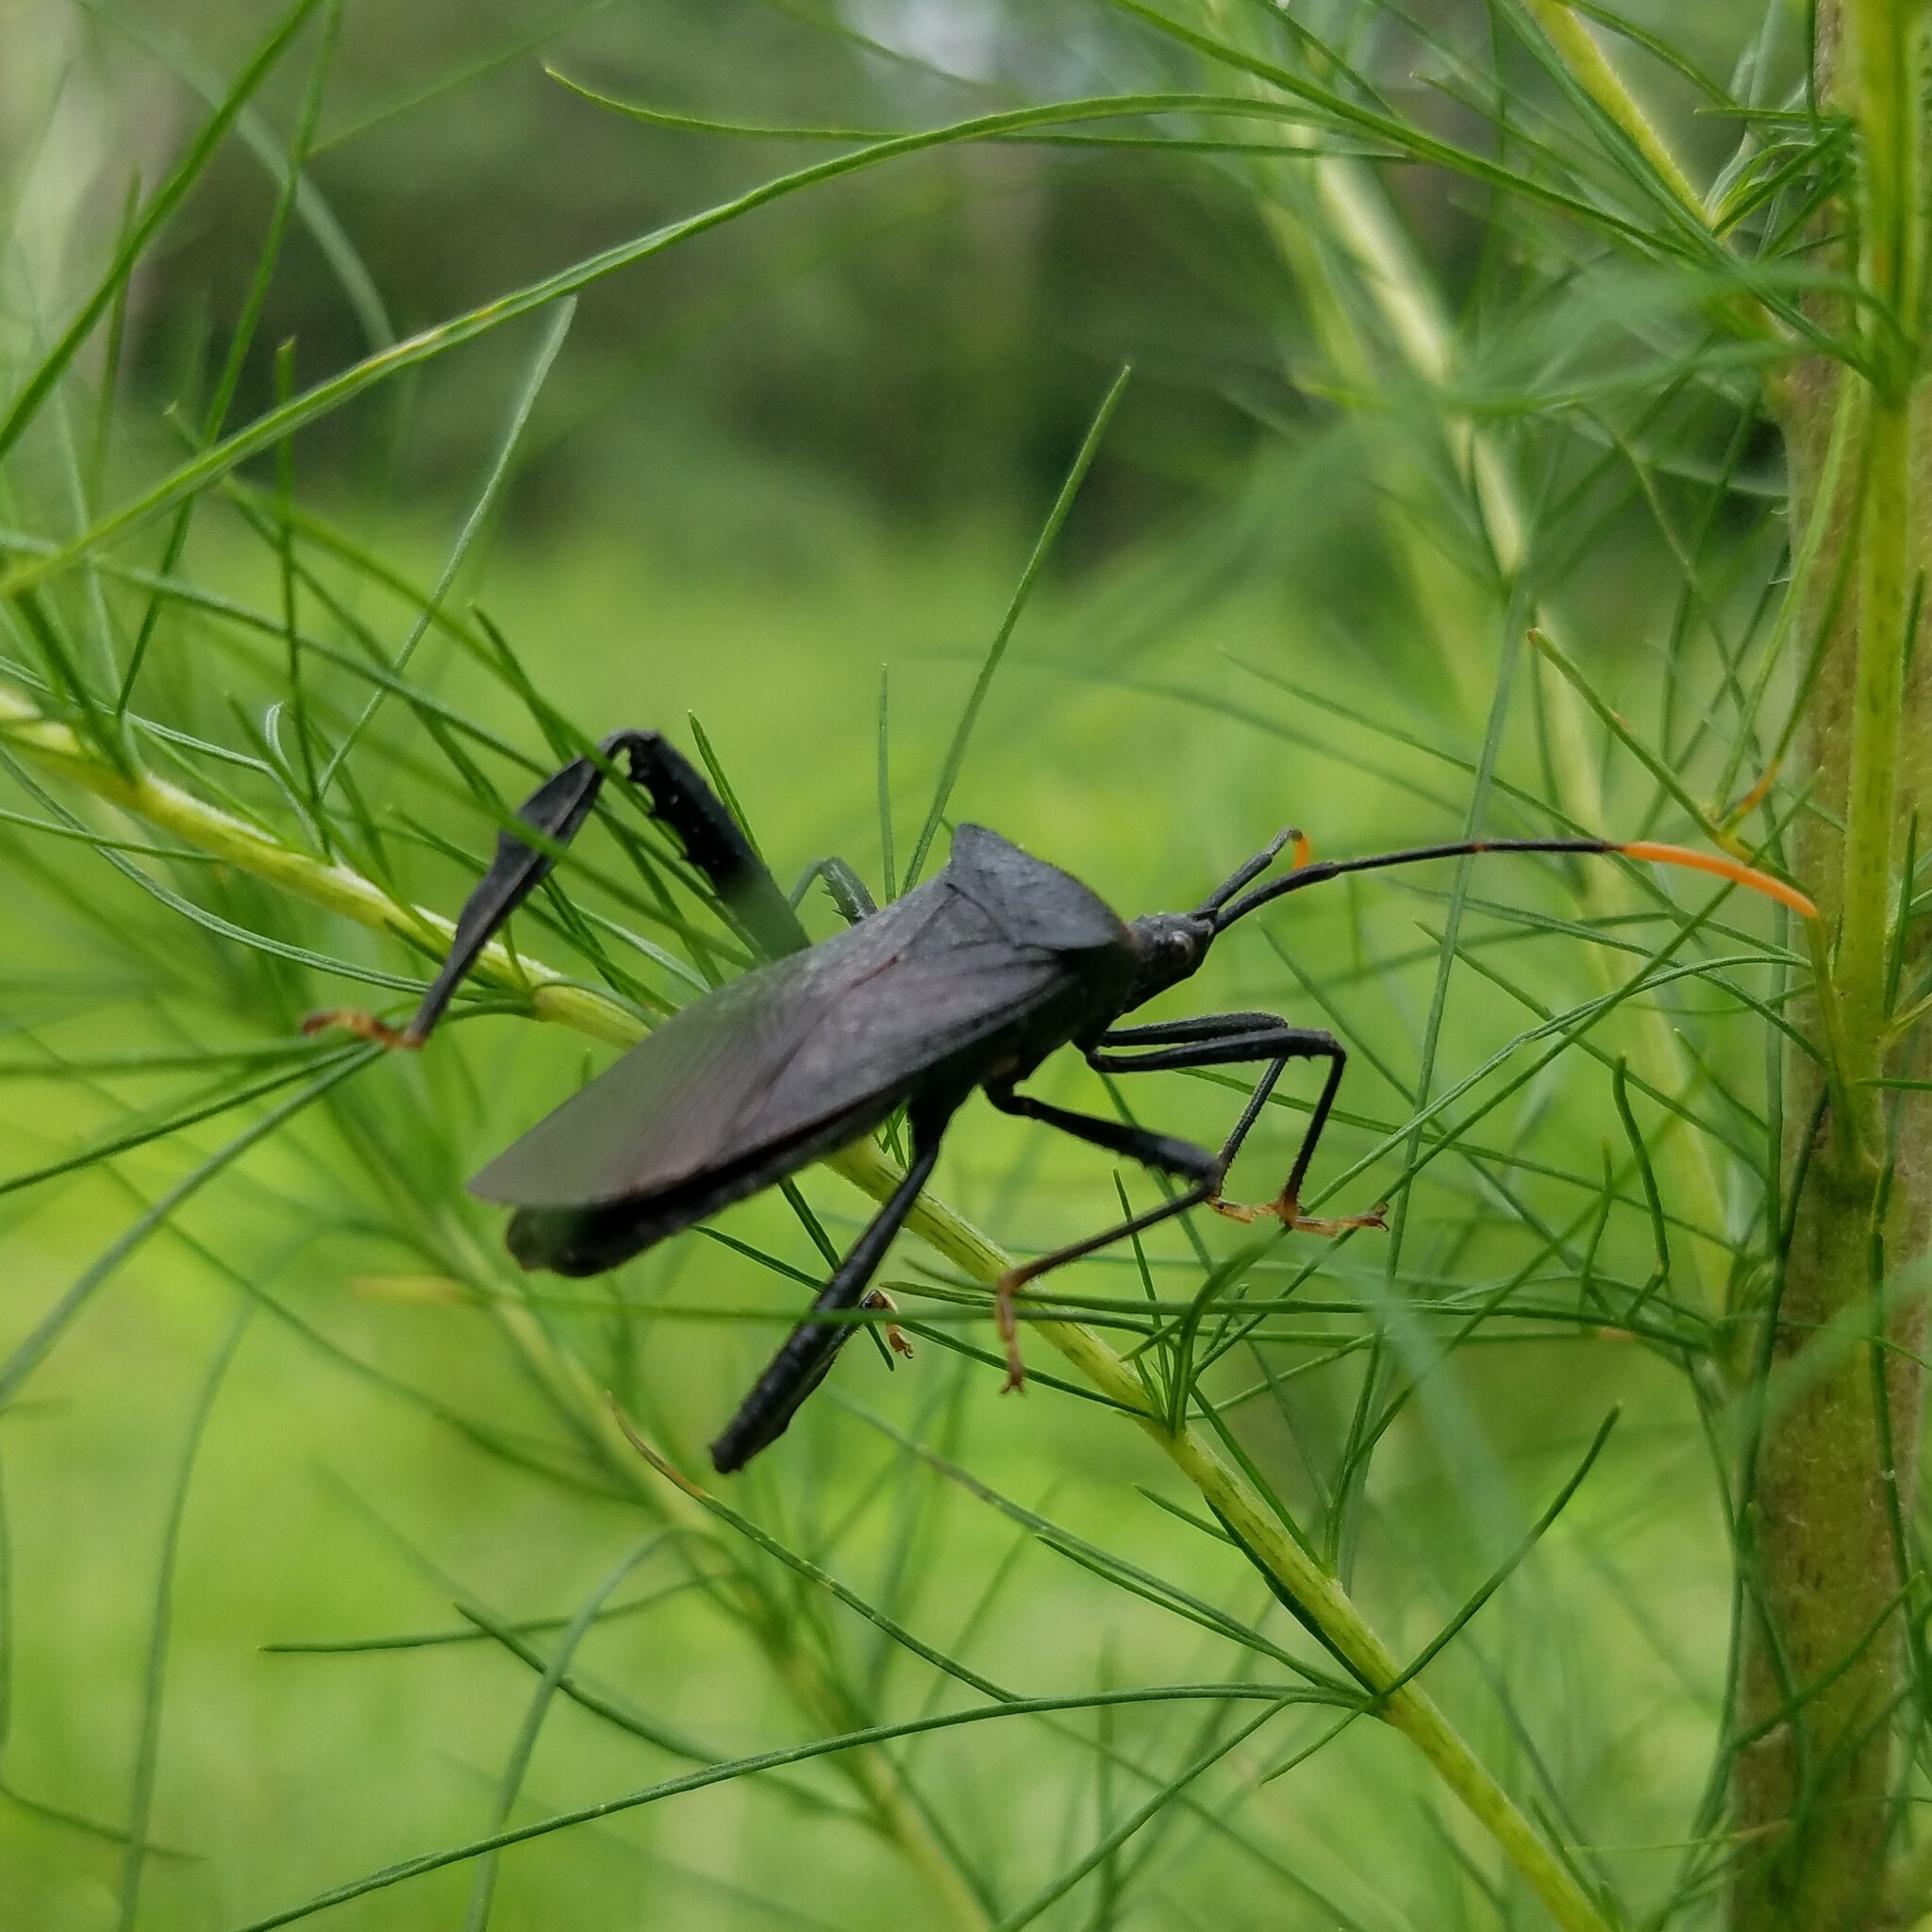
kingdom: Animalia
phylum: Arthropoda
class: Insecta
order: Hemiptera
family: Coreidae
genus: Acanthocephala
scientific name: Acanthocephala terminalis
